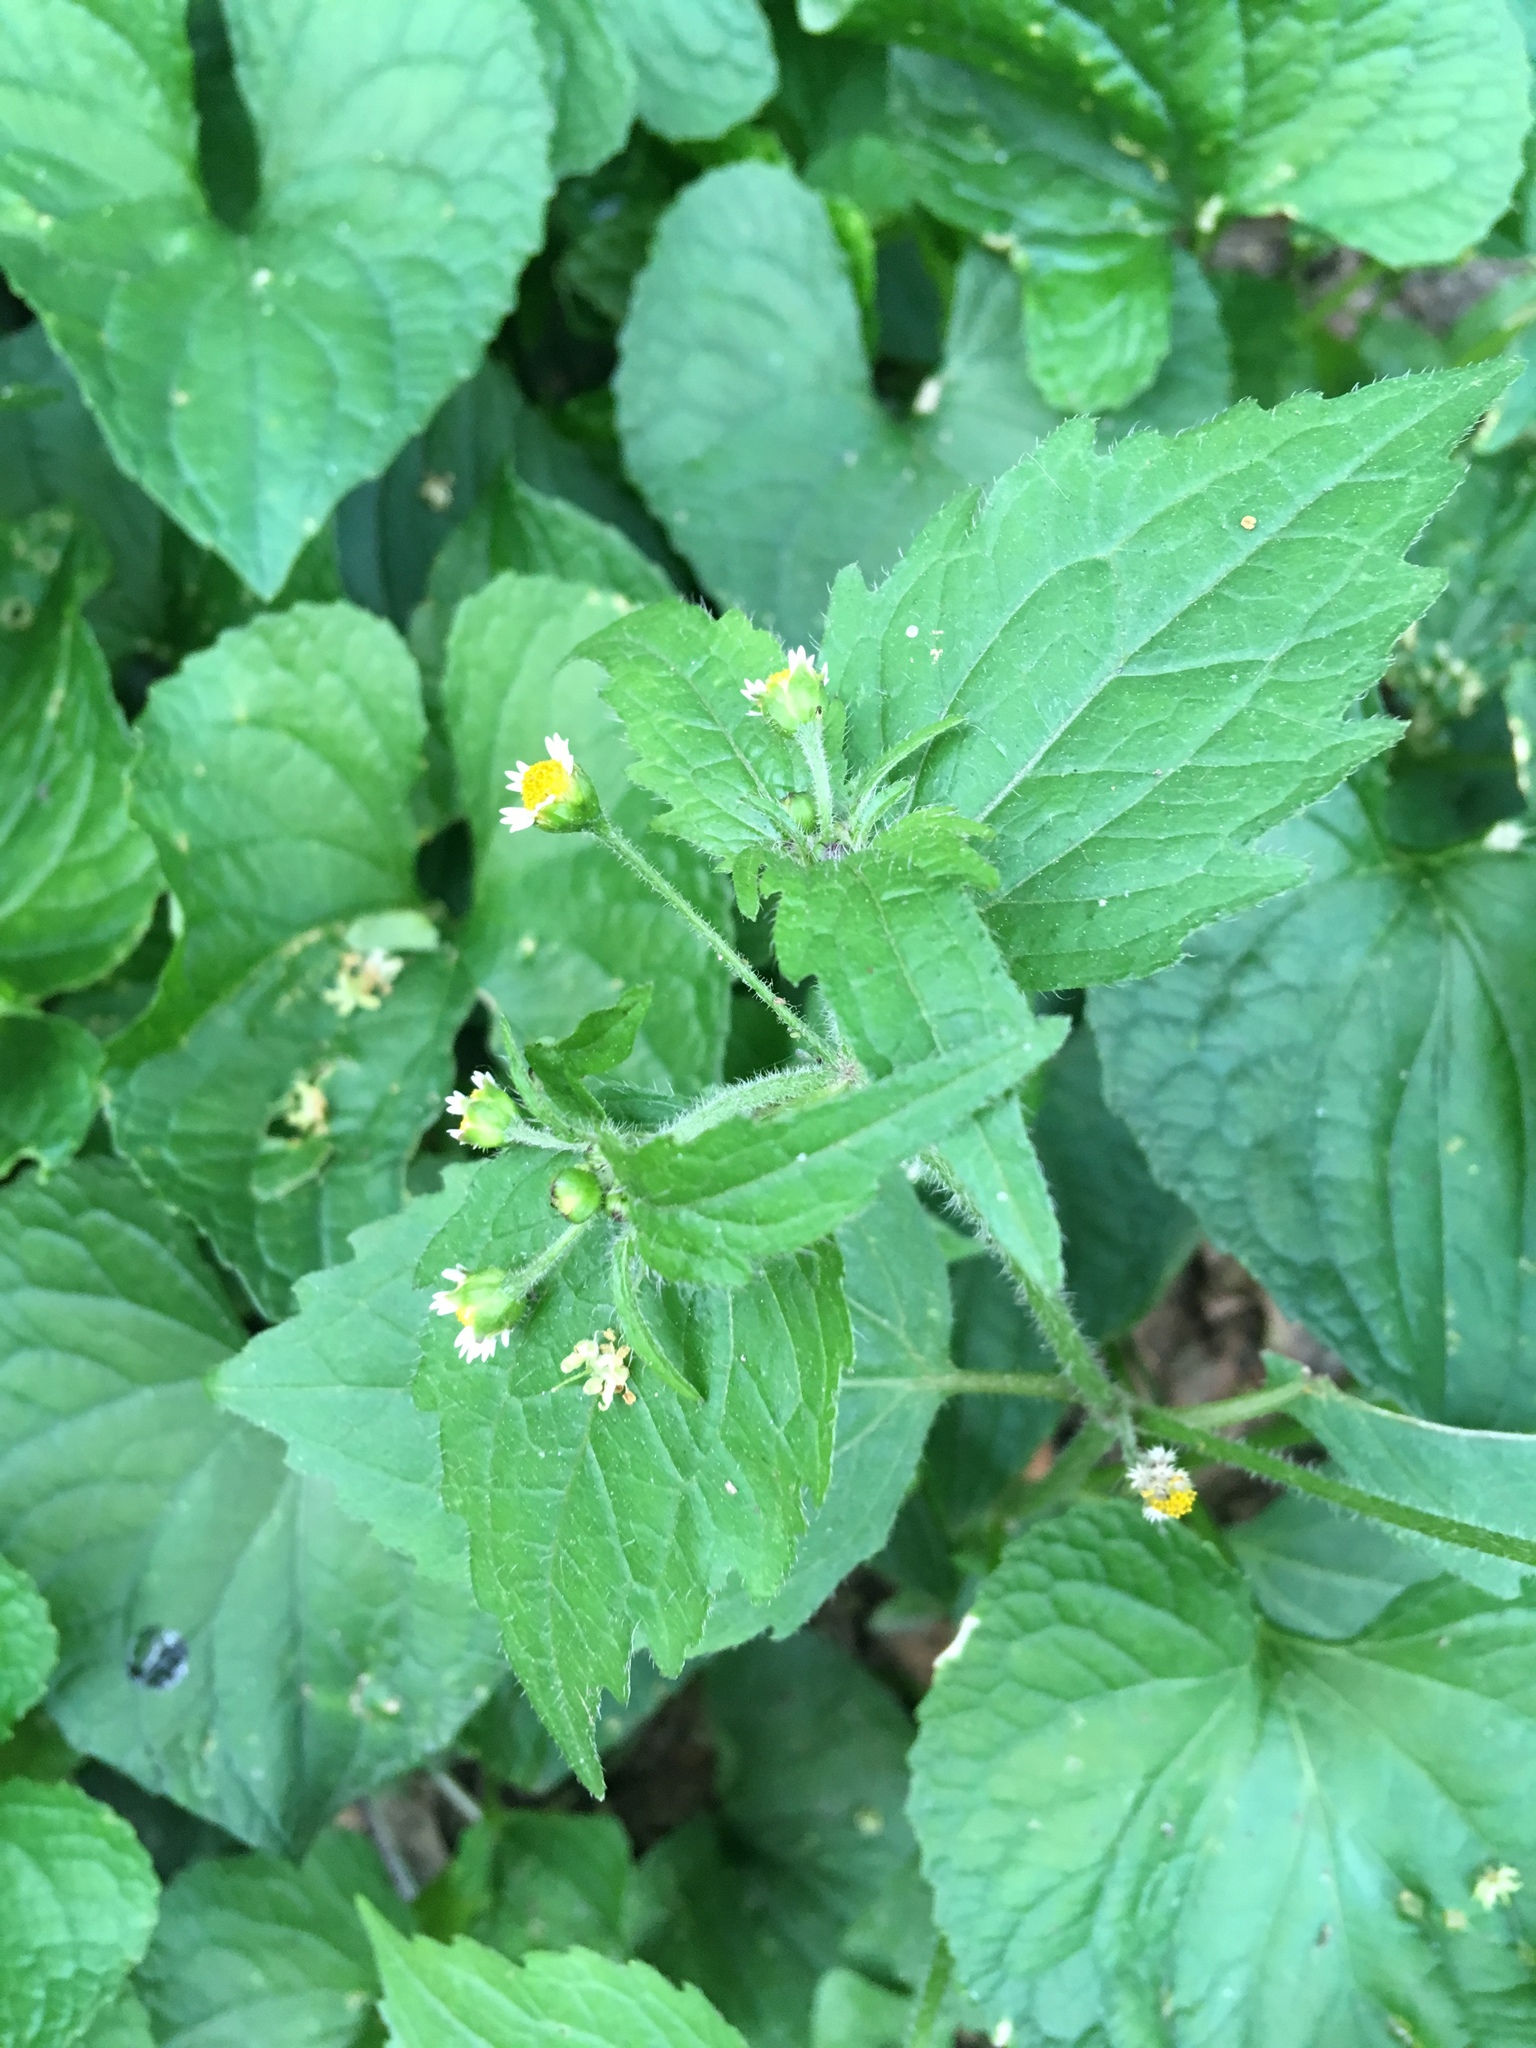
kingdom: Plantae
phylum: Tracheophyta
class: Magnoliopsida
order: Asterales
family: Asteraceae
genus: Galinsoga
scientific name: Galinsoga quadriradiata
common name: Shaggy soldier
